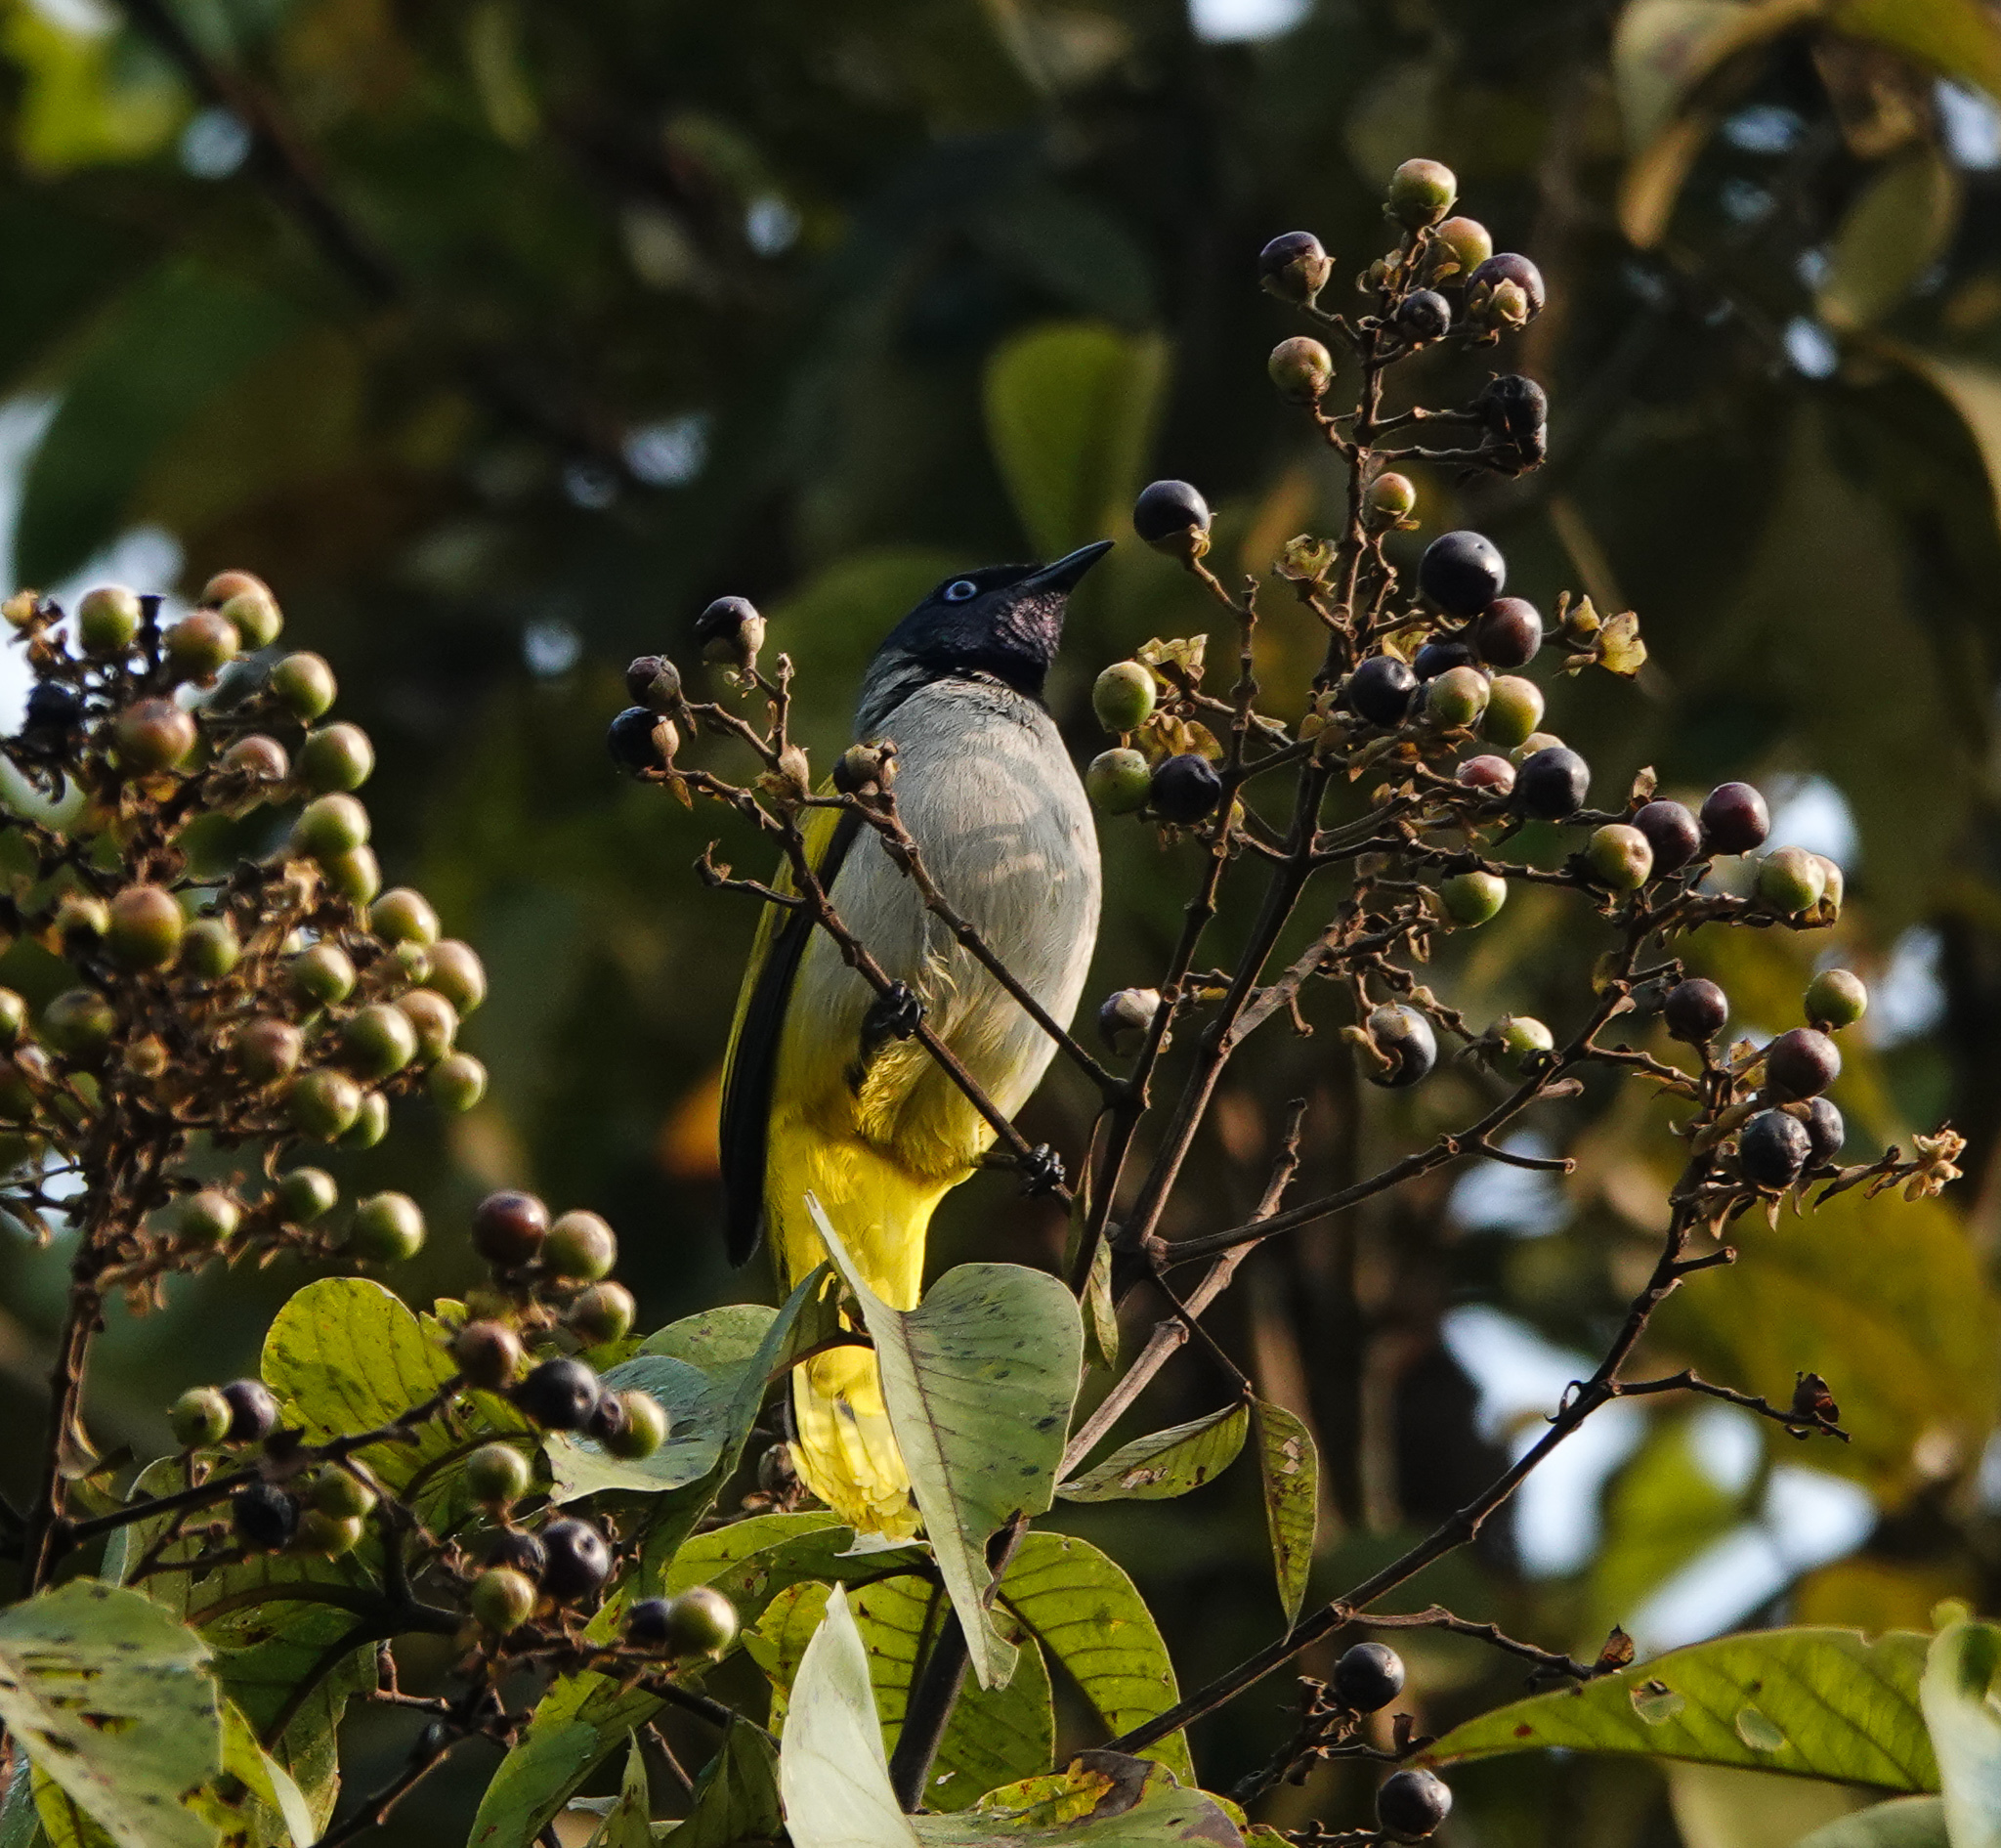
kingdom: Animalia
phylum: Chordata
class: Aves
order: Passeriformes
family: Pycnonotidae
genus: Microtarsus
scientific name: Microtarsus
